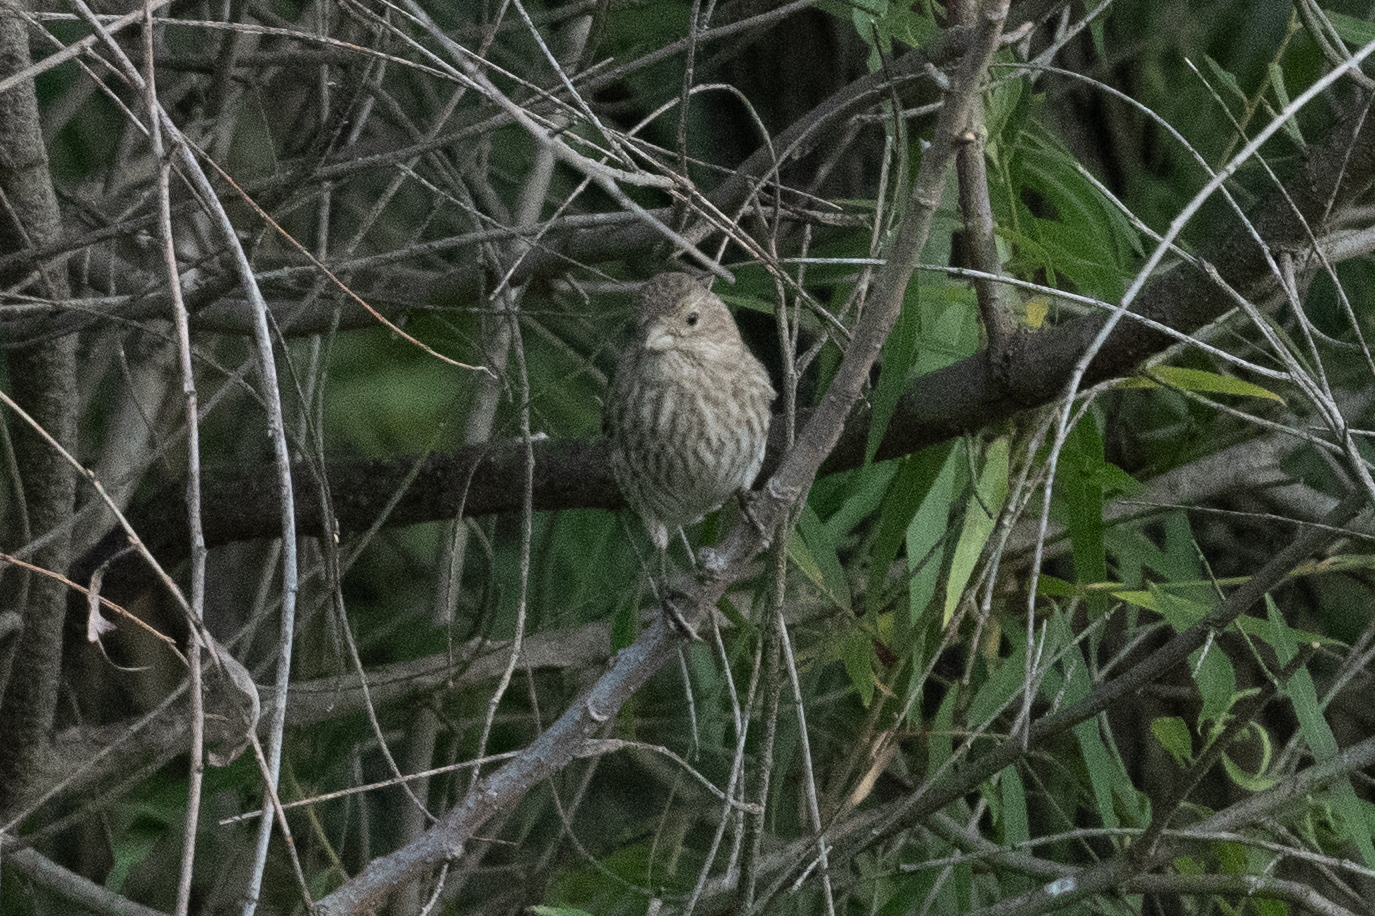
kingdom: Animalia
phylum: Chordata
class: Aves
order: Passeriformes
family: Fringillidae
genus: Haemorhous
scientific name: Haemorhous mexicanus
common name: House finch
